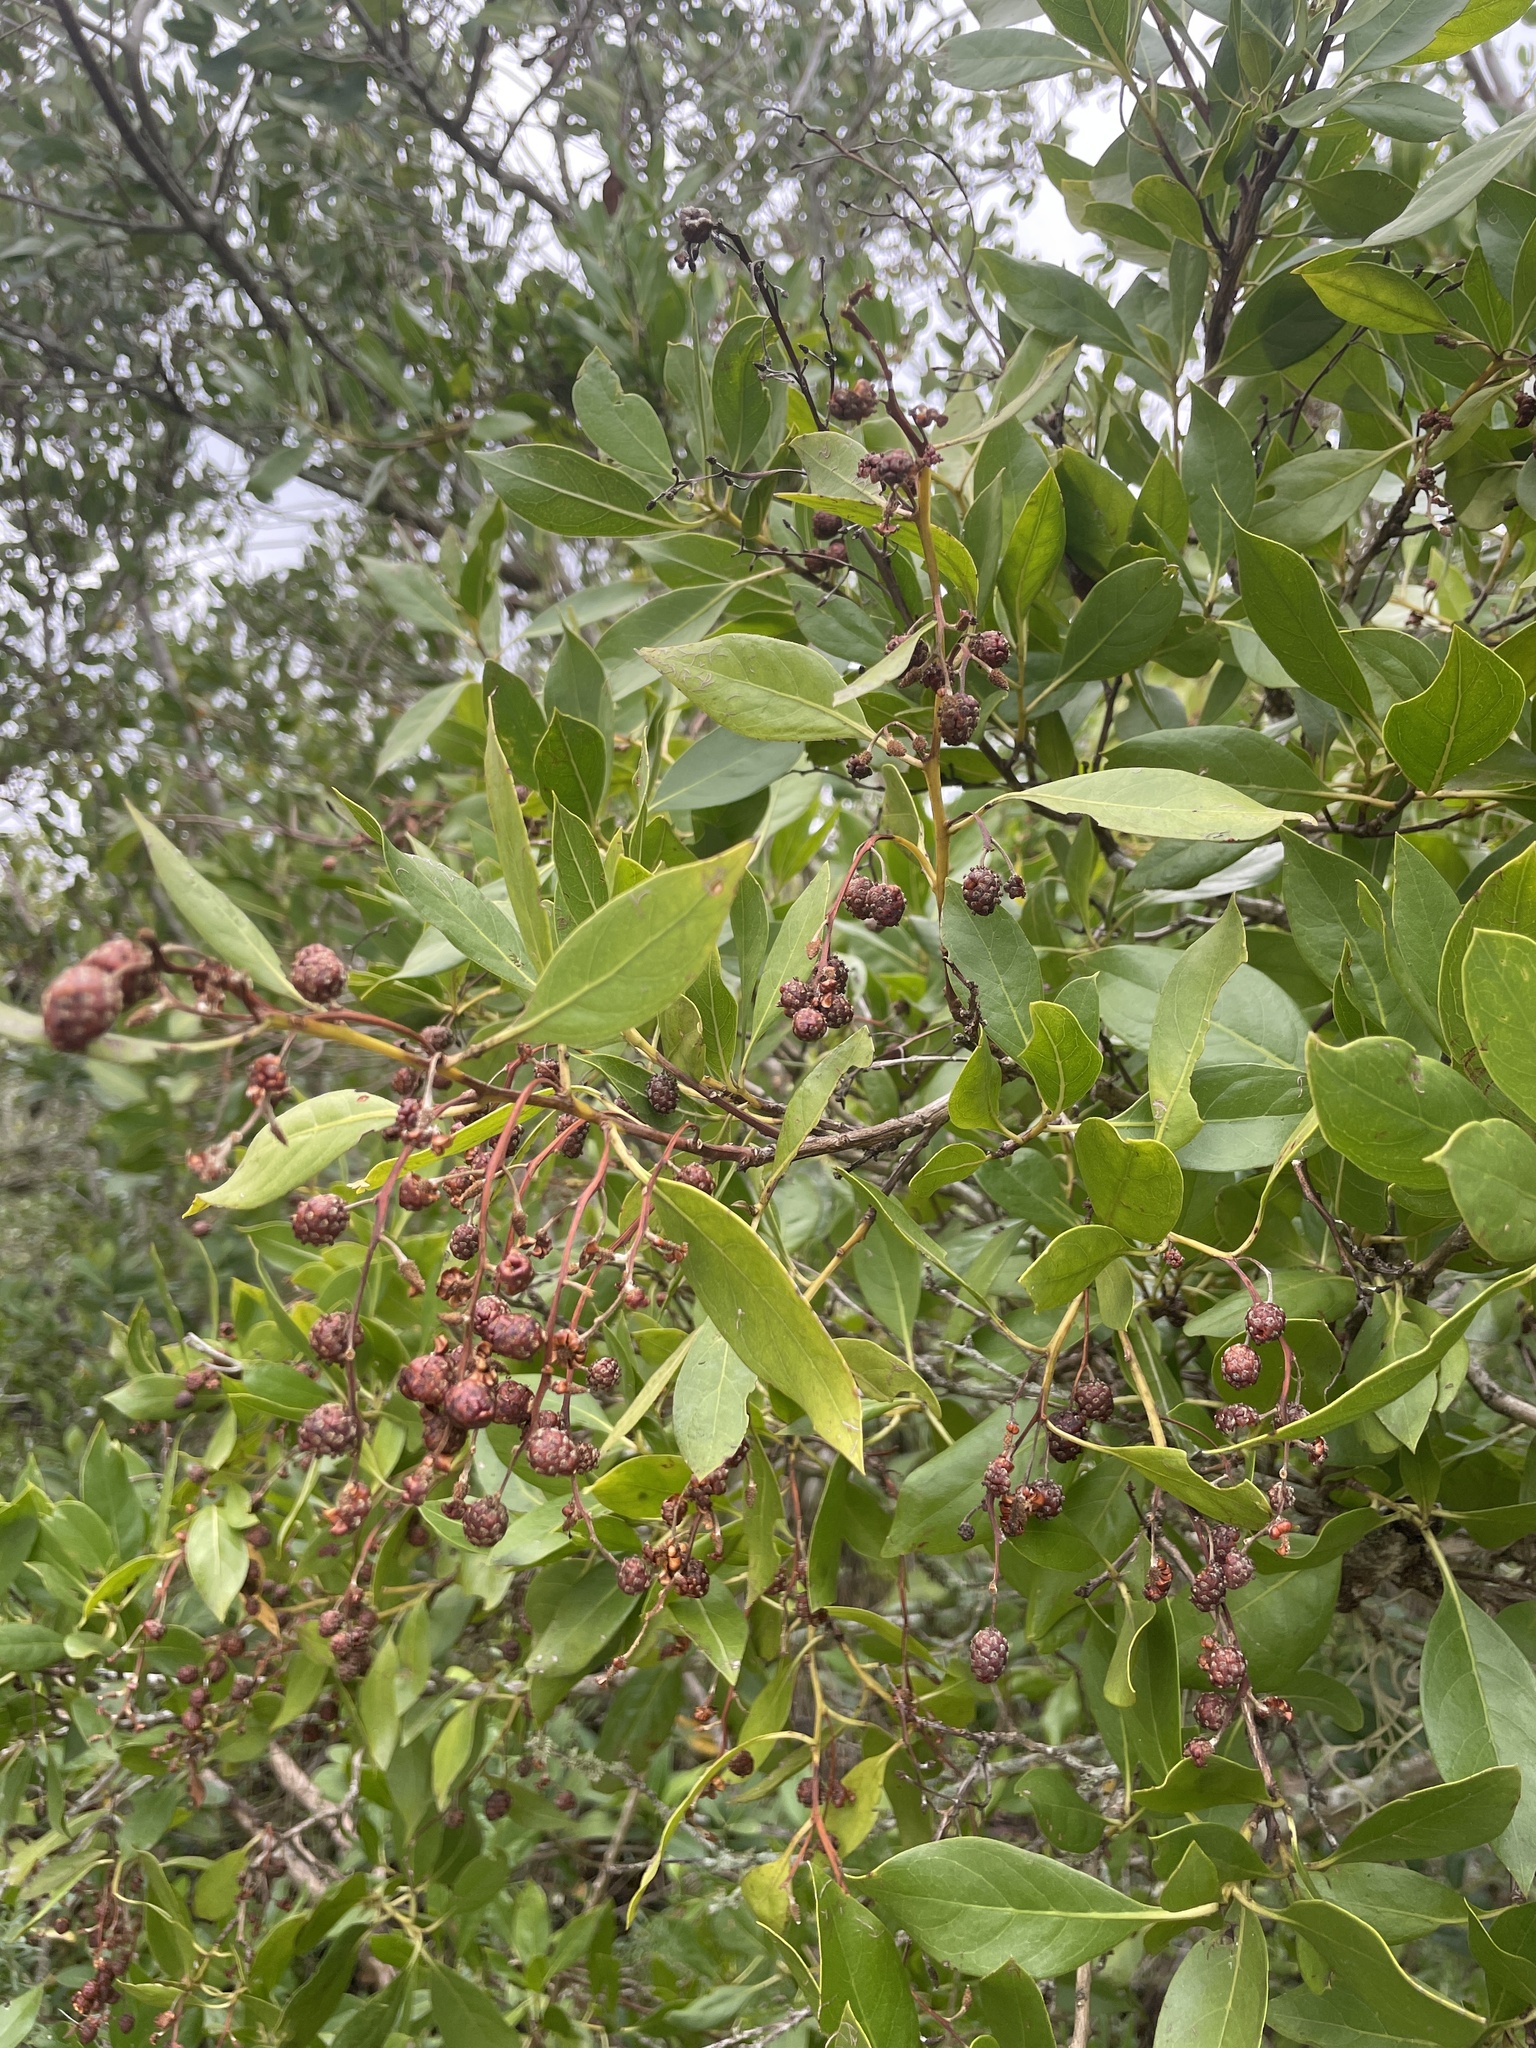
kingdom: Plantae
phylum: Tracheophyta
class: Magnoliopsida
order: Myrtales
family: Combretaceae
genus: Conocarpus
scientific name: Conocarpus erectus
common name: Button mangrove
